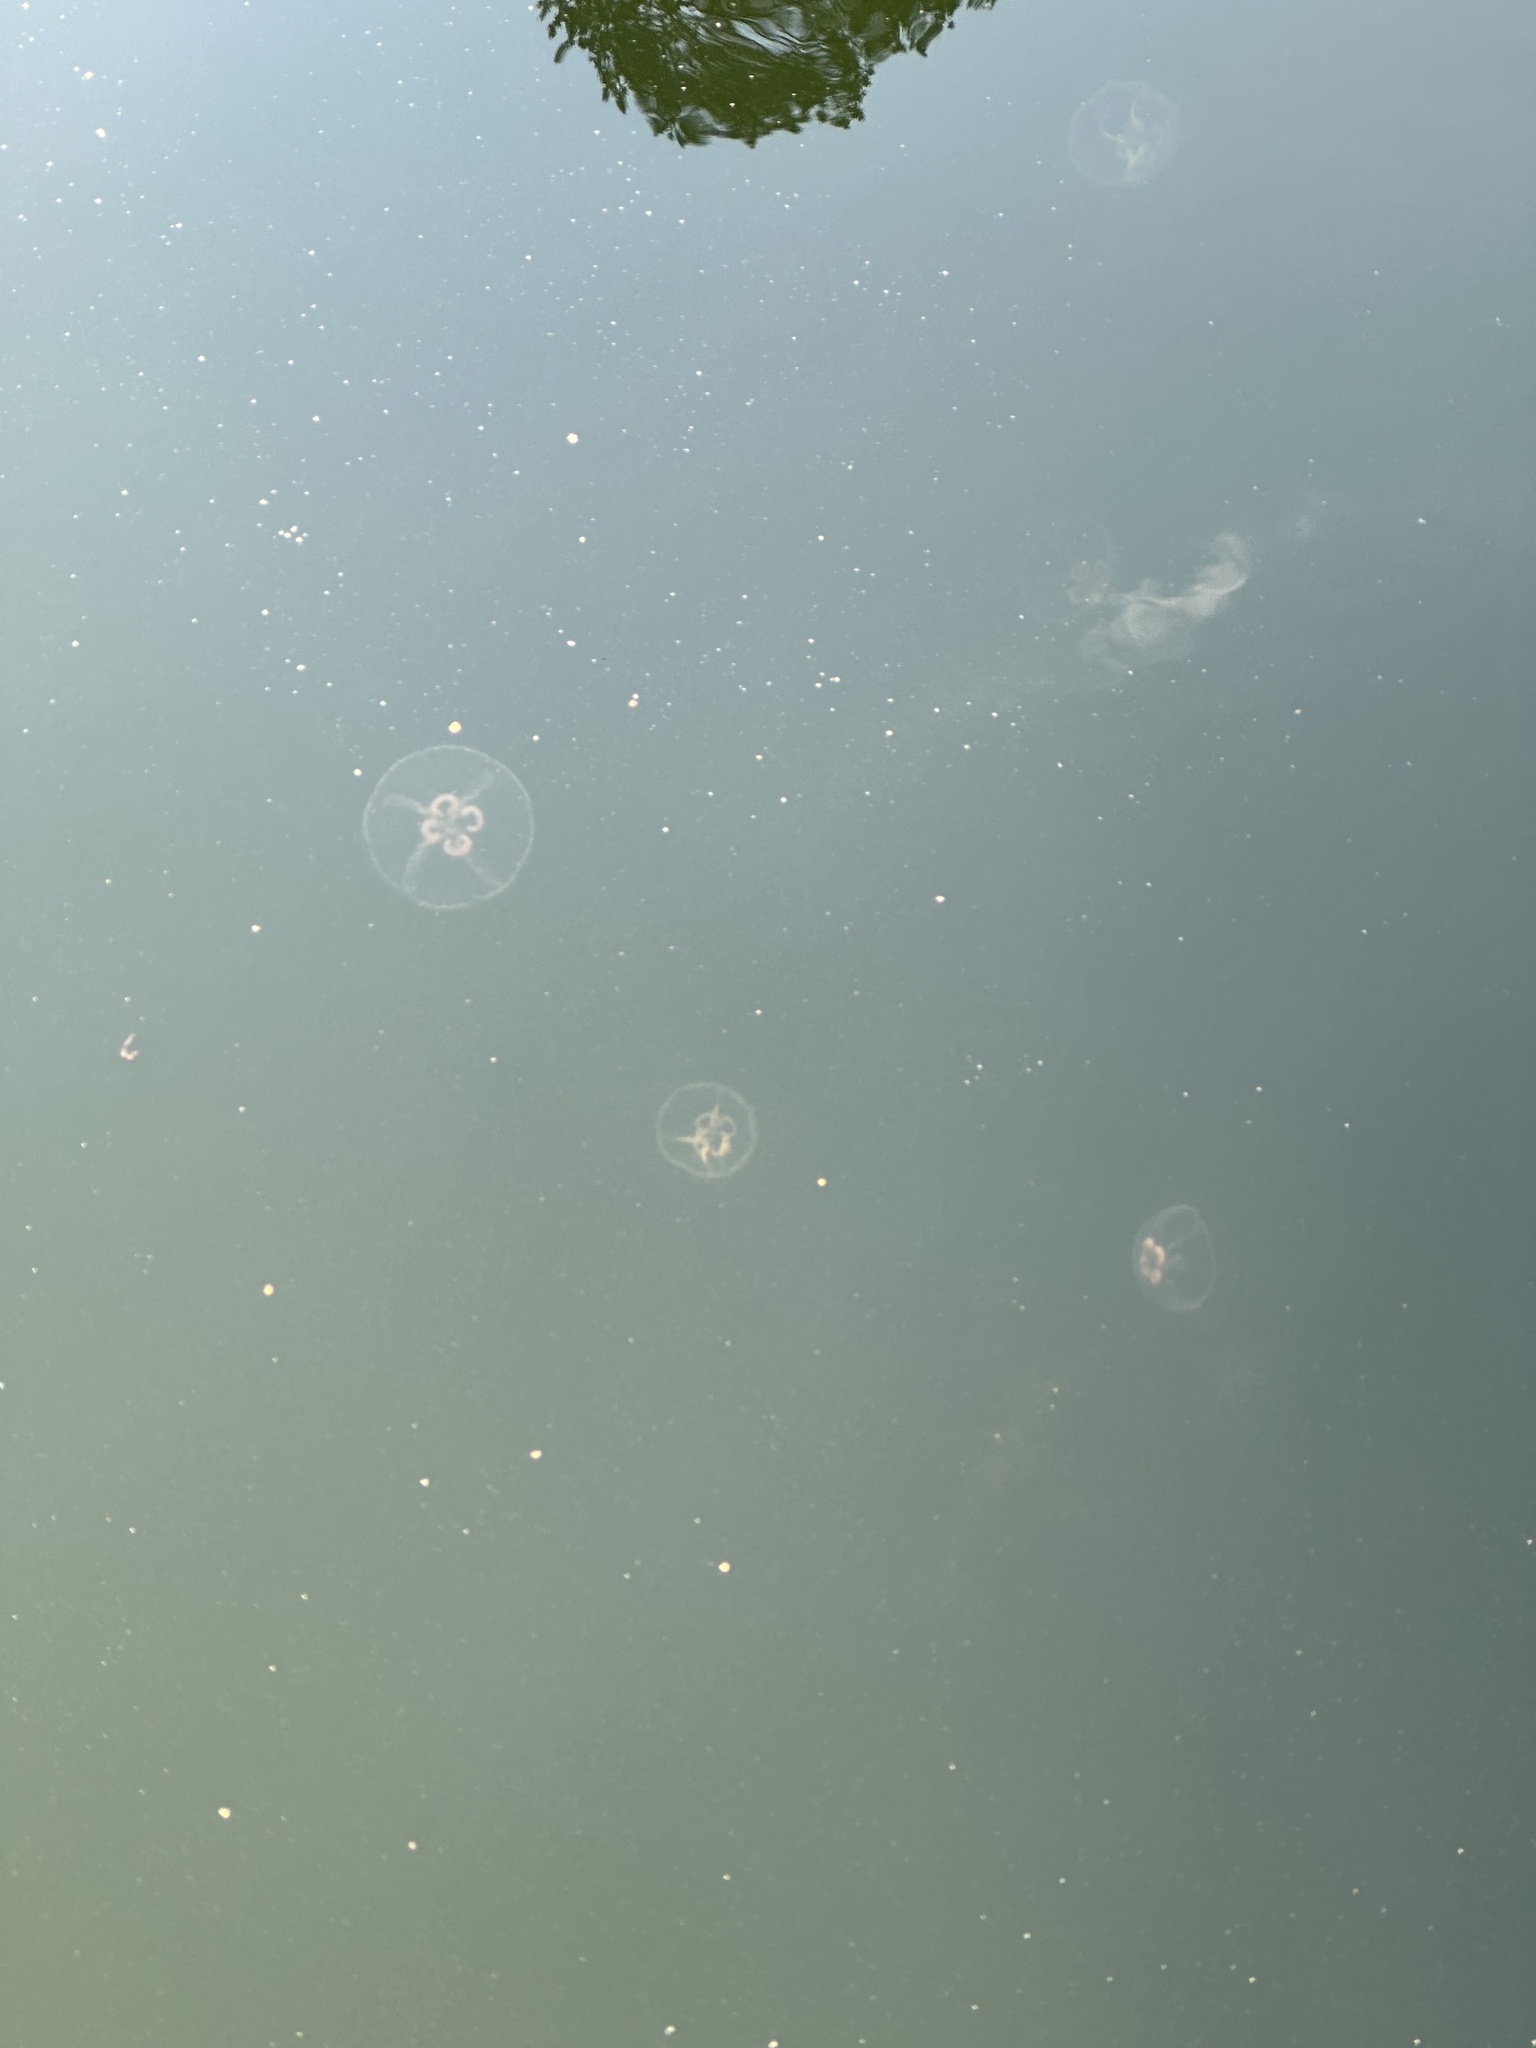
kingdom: Animalia
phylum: Cnidaria
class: Scyphozoa
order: Semaeostomeae
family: Ulmaridae
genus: Aurelia
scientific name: Aurelia aurita
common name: Moon jellyfish
